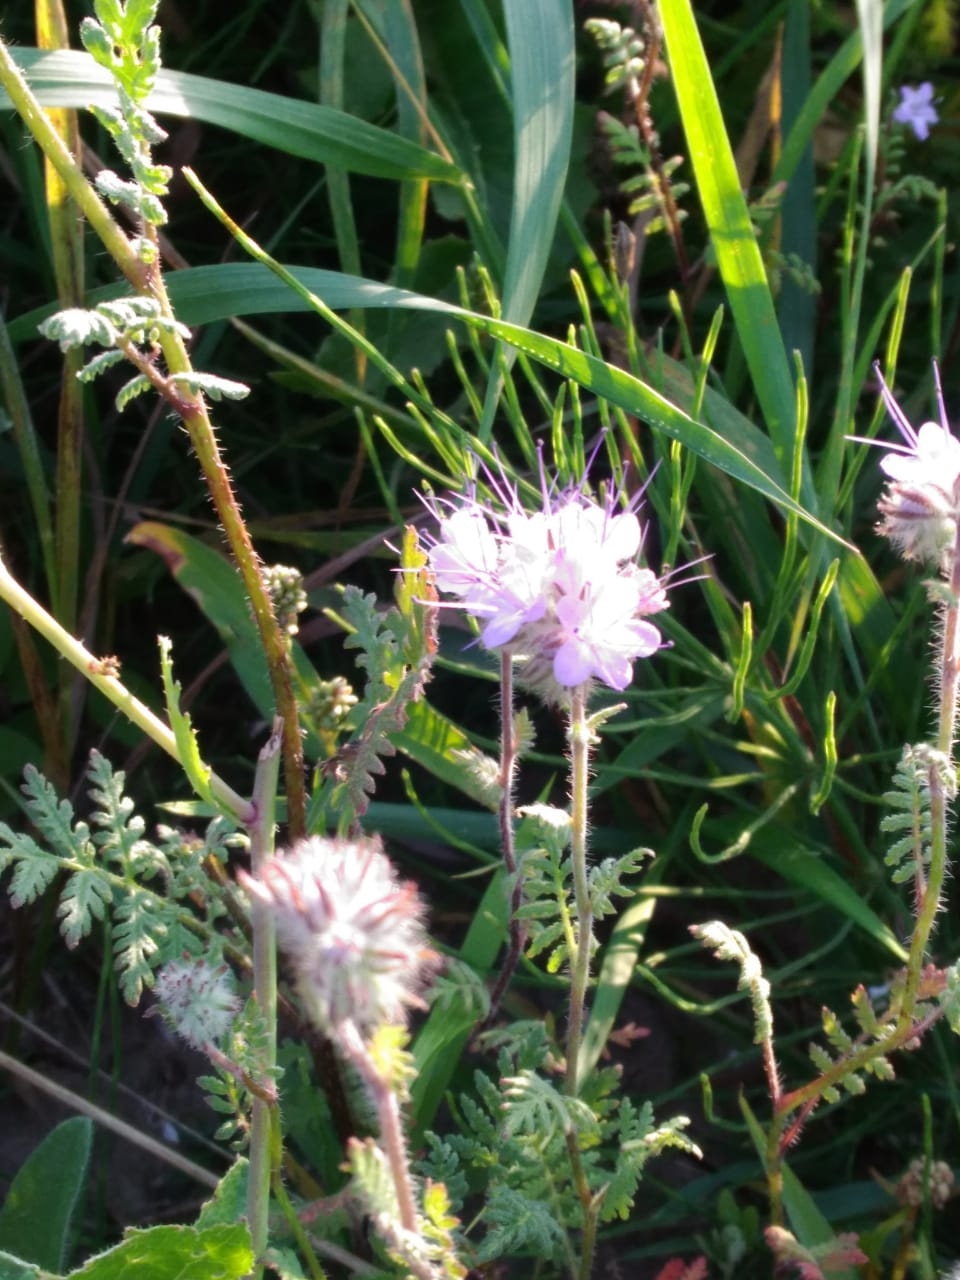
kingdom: Plantae
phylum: Tracheophyta
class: Magnoliopsida
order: Boraginales
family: Hydrophyllaceae
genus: Phacelia
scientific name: Phacelia tanacetifolia
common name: Phacelia
